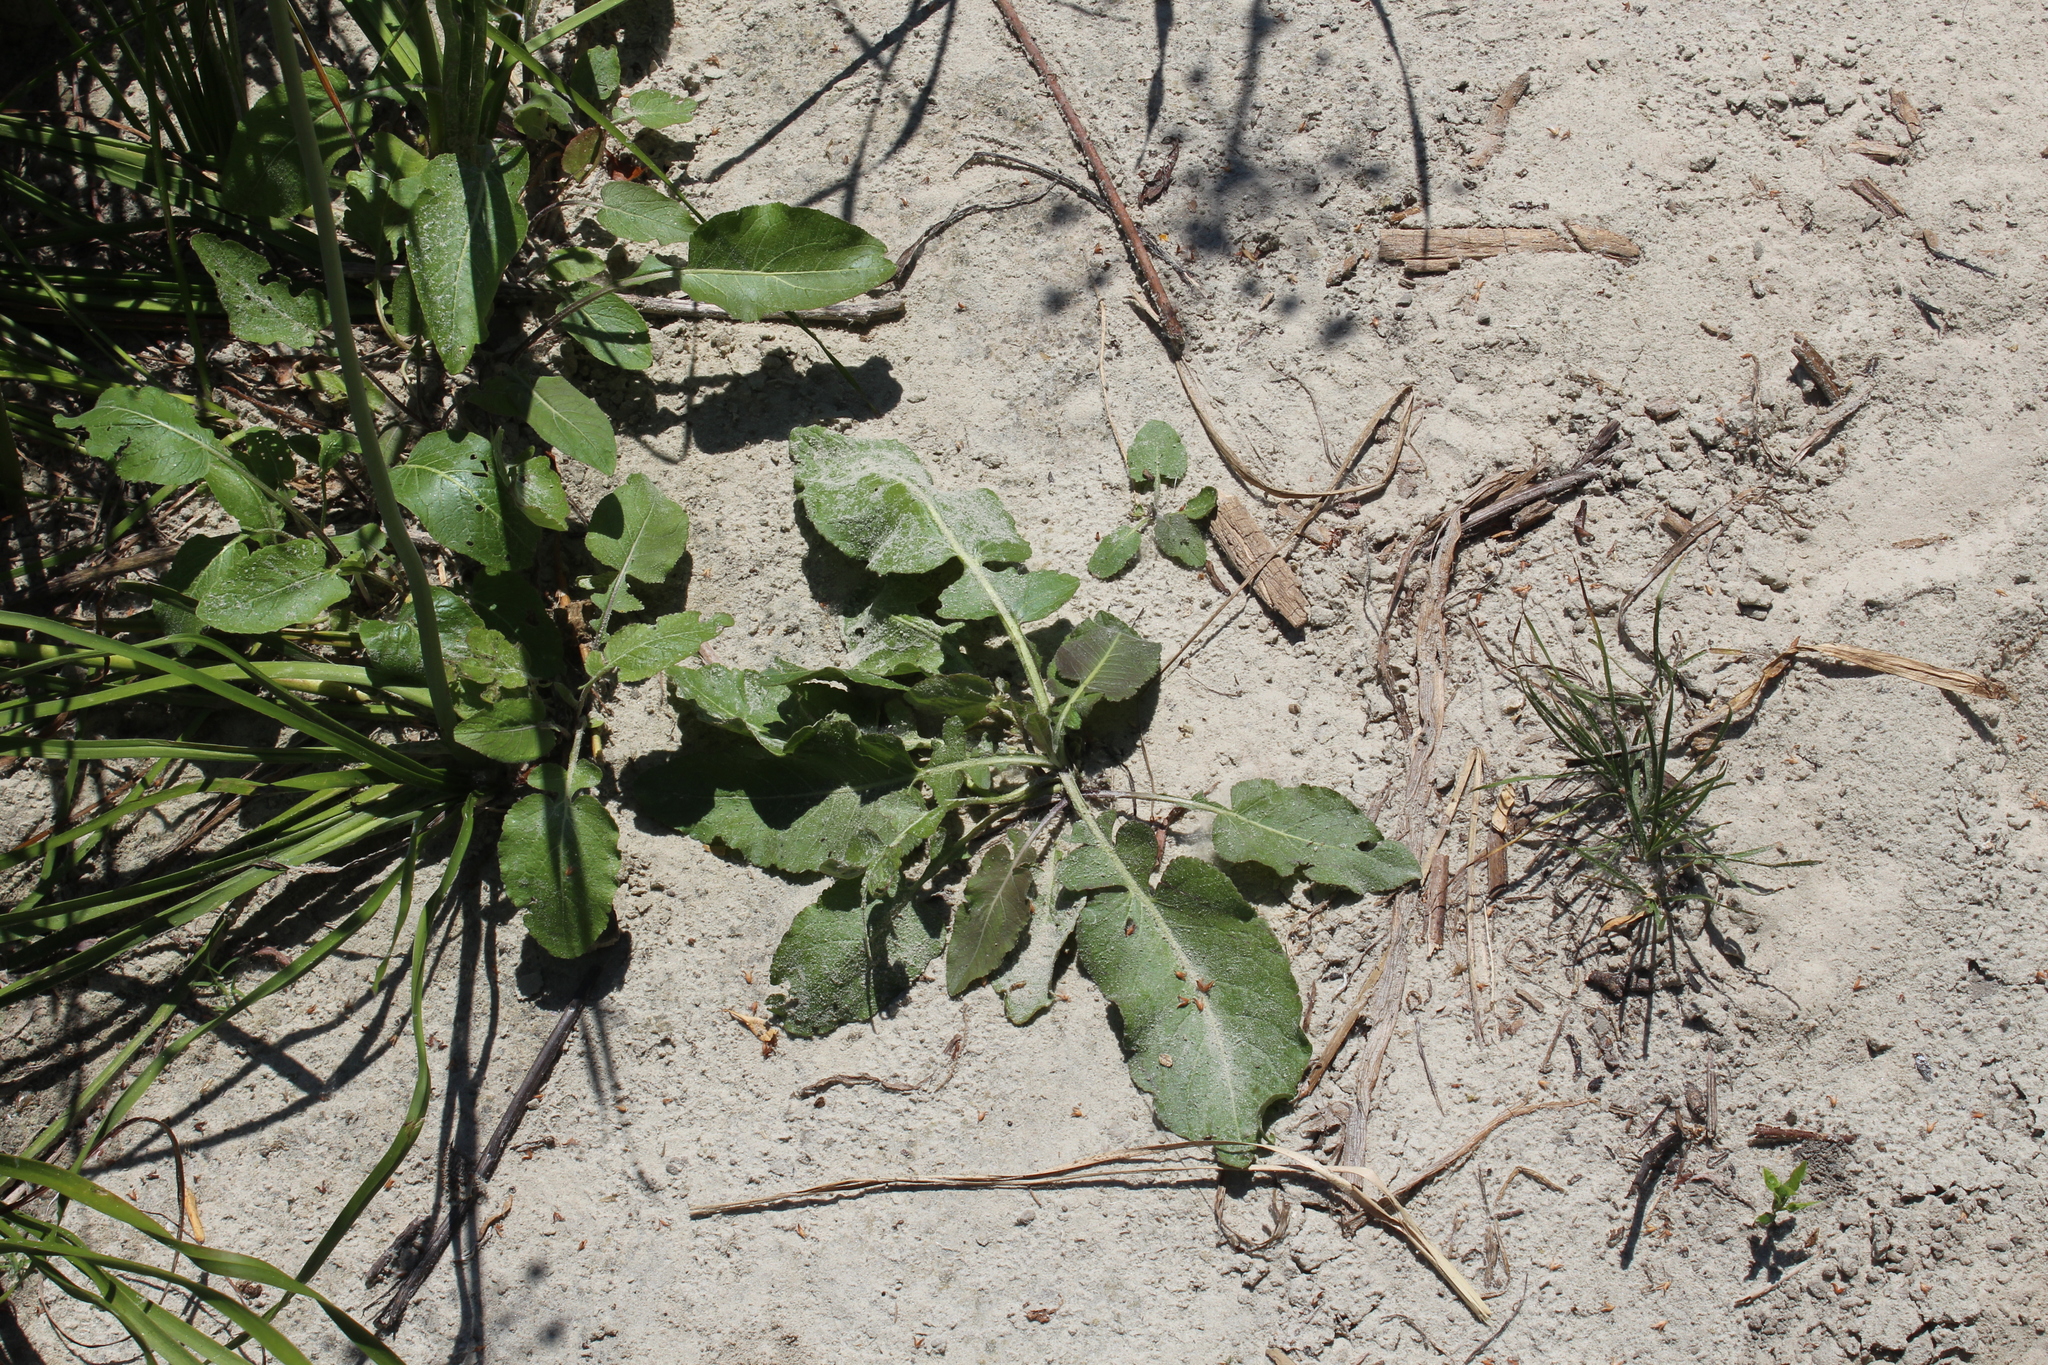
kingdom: Plantae
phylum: Tracheophyta
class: Magnoliopsida
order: Brassicales
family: Brassicaceae
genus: Rorippa
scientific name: Rorippa amphibia
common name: Great yellow-cress
